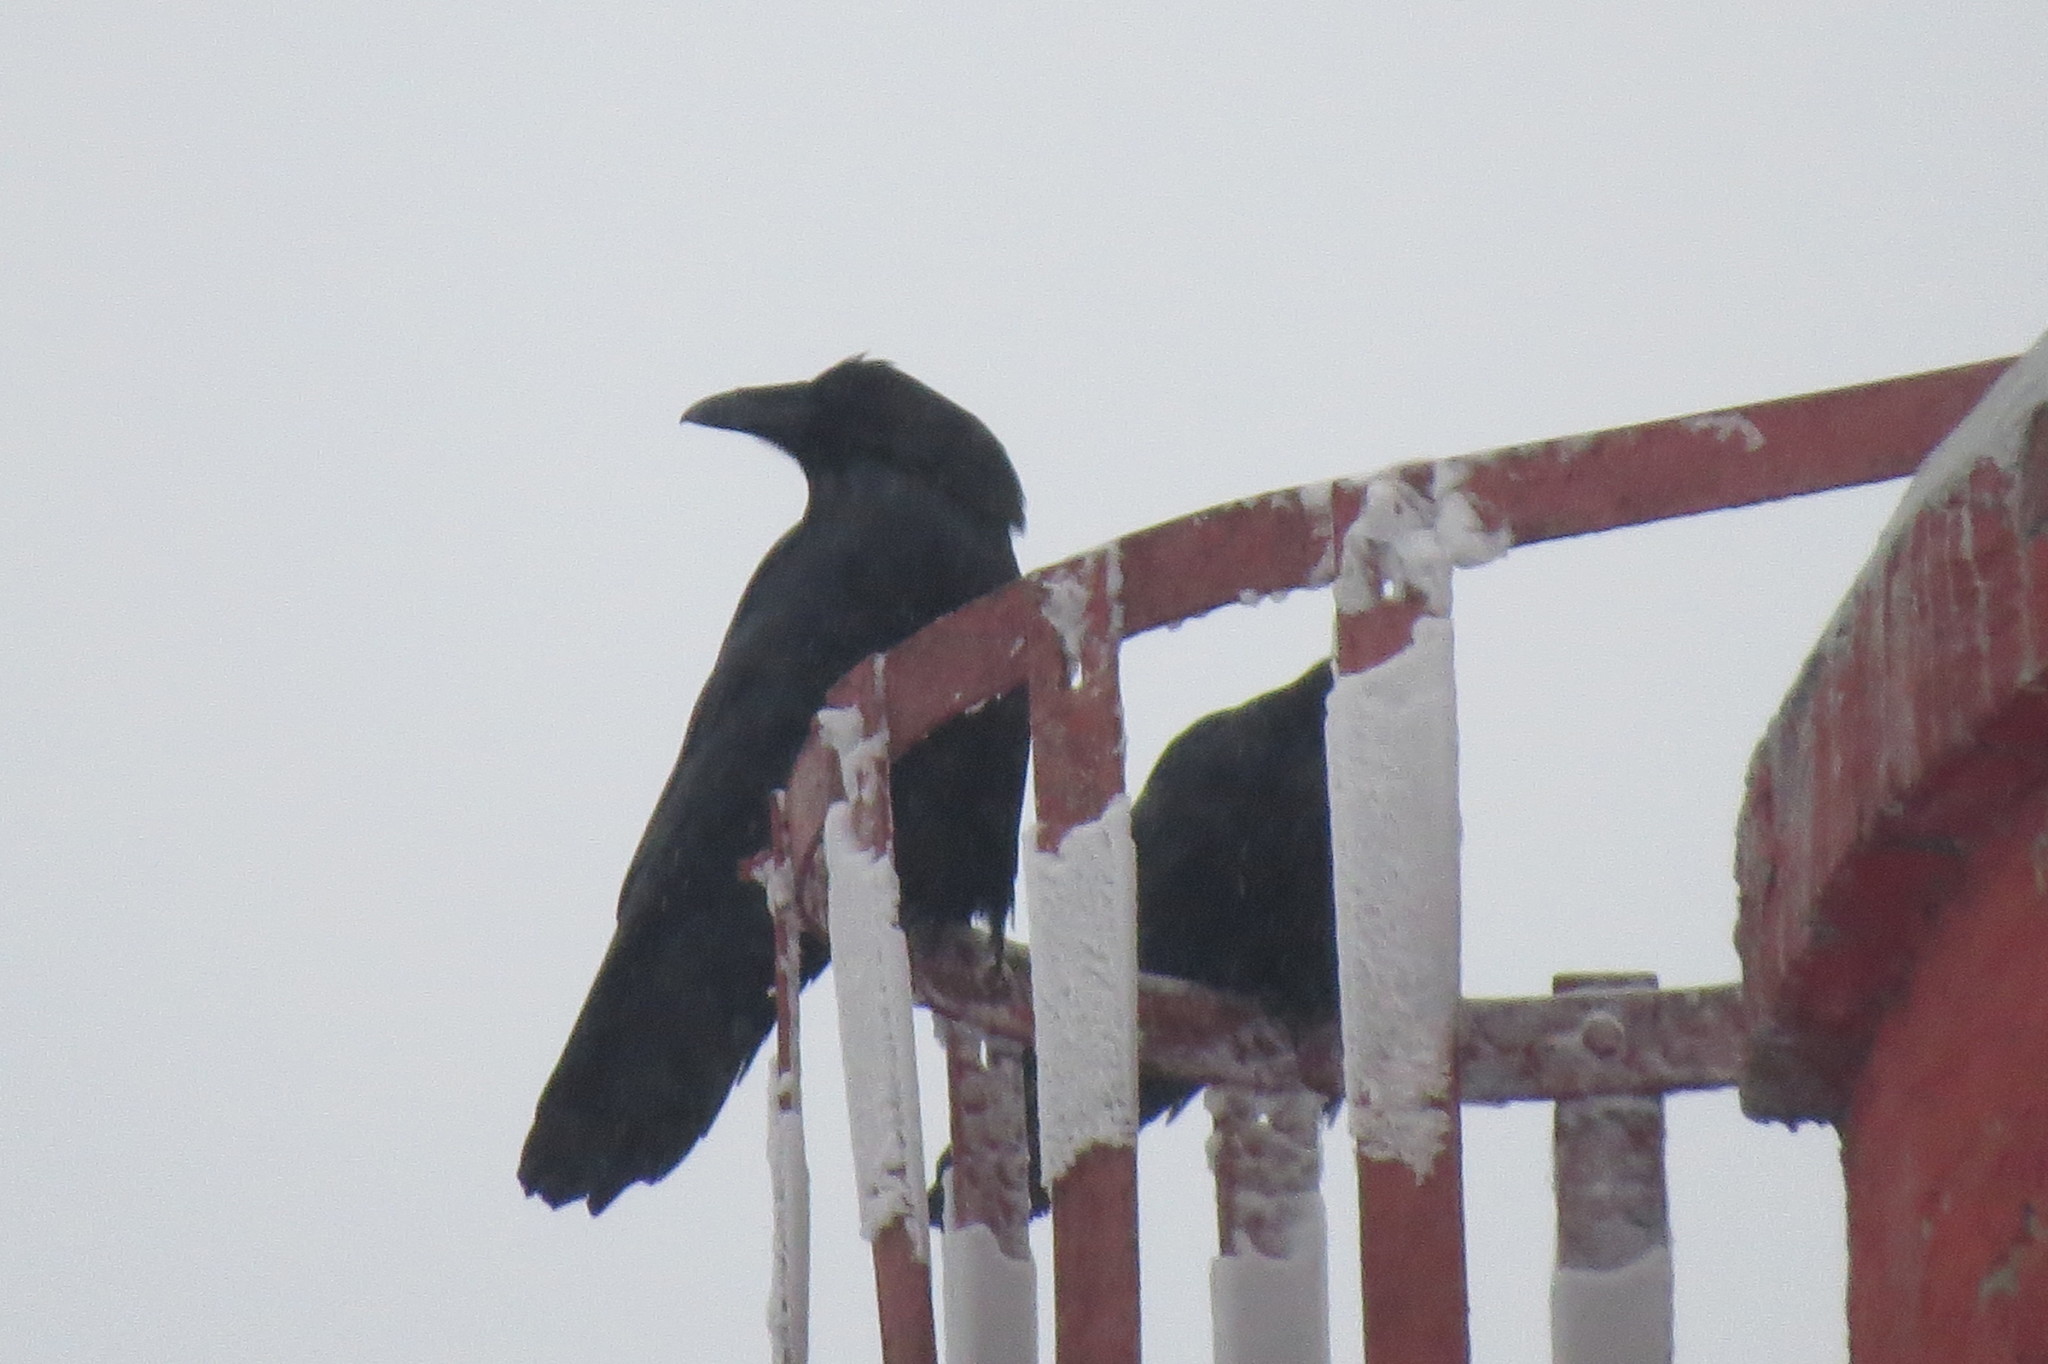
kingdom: Animalia
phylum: Chordata
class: Aves
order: Passeriformes
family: Corvidae
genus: Corvus
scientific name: Corvus corax
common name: Common raven
